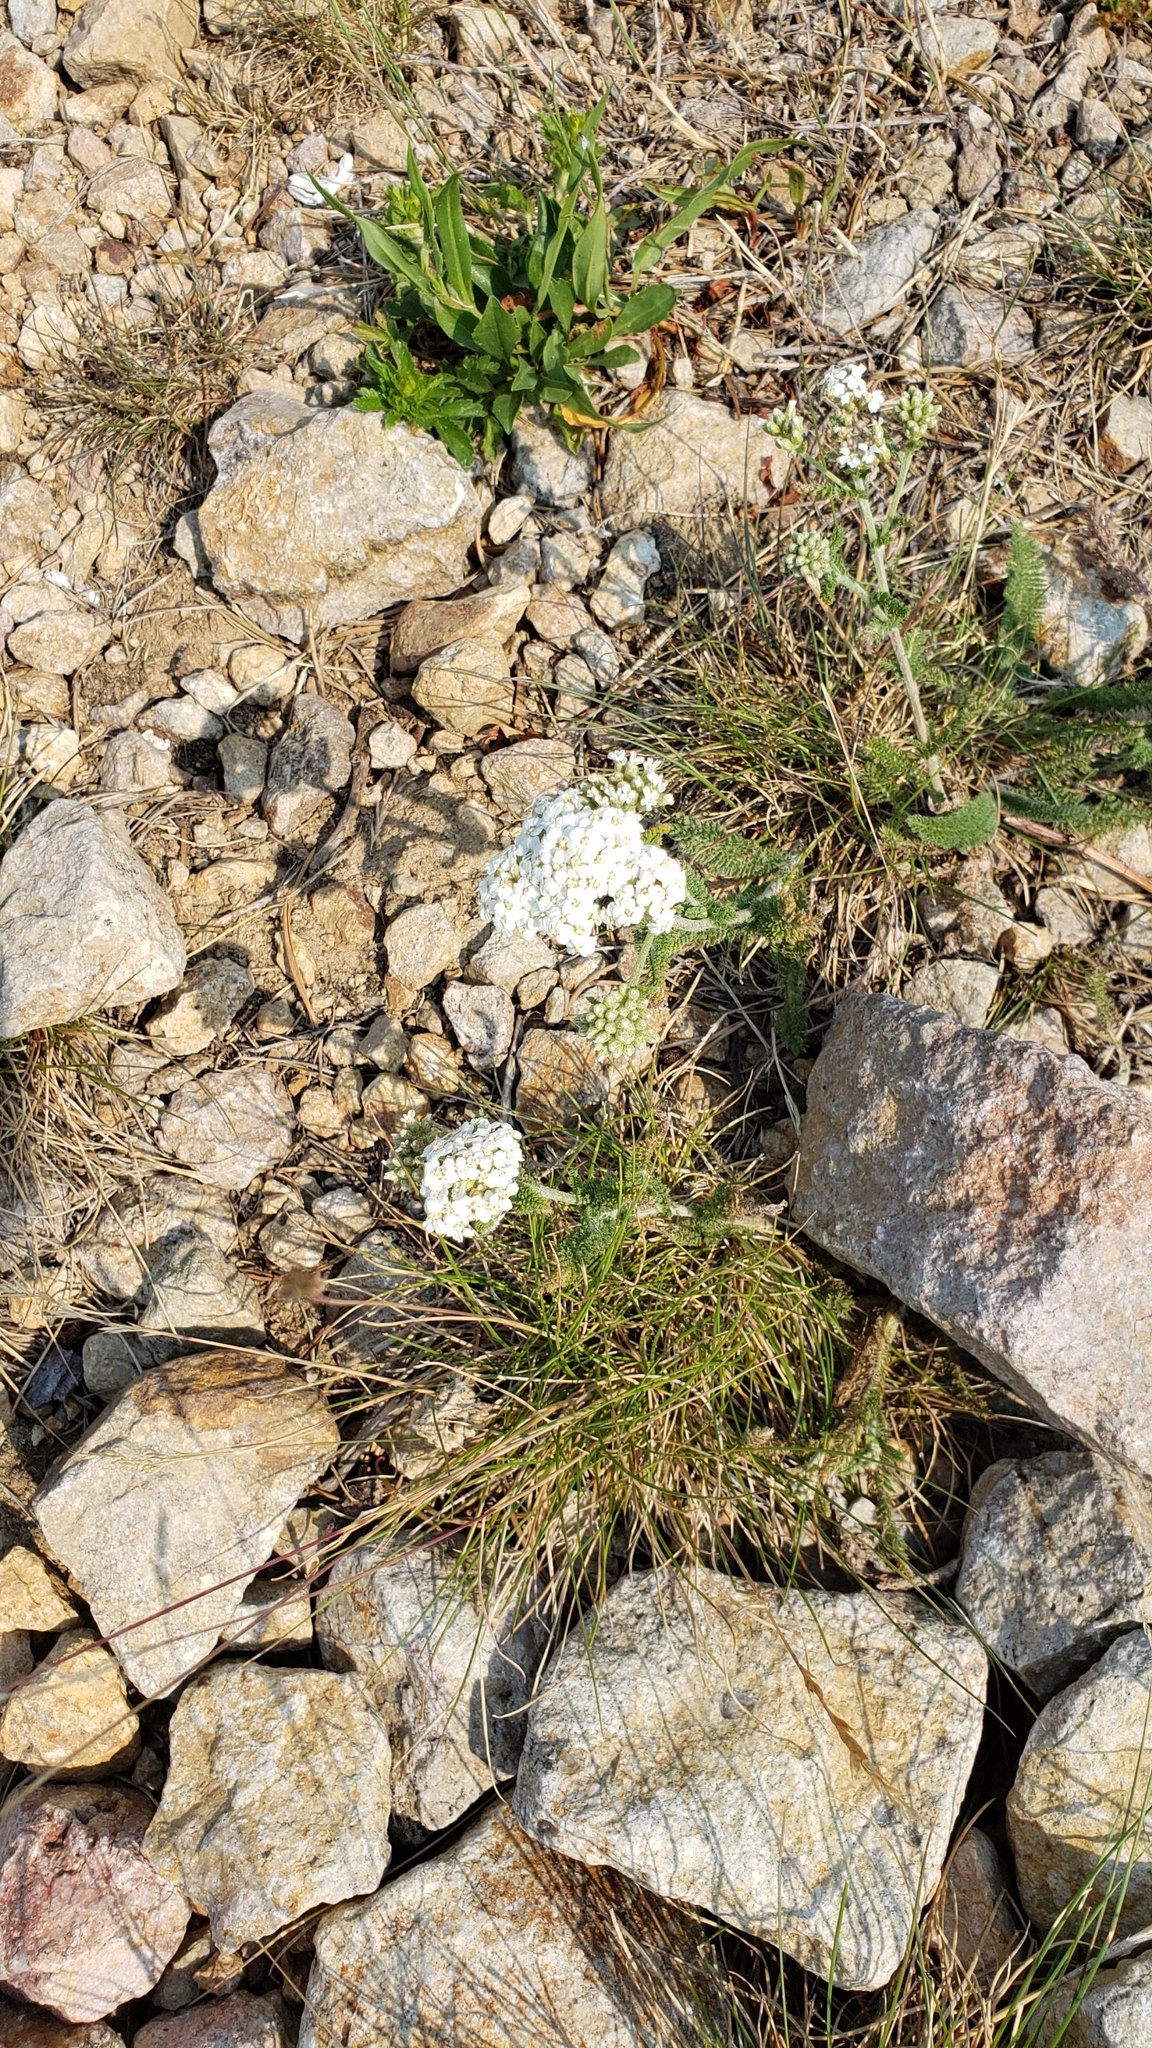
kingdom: Plantae
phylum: Tracheophyta
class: Magnoliopsida
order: Asterales
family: Asteraceae
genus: Achillea
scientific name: Achillea millefolium
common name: Yarrow
